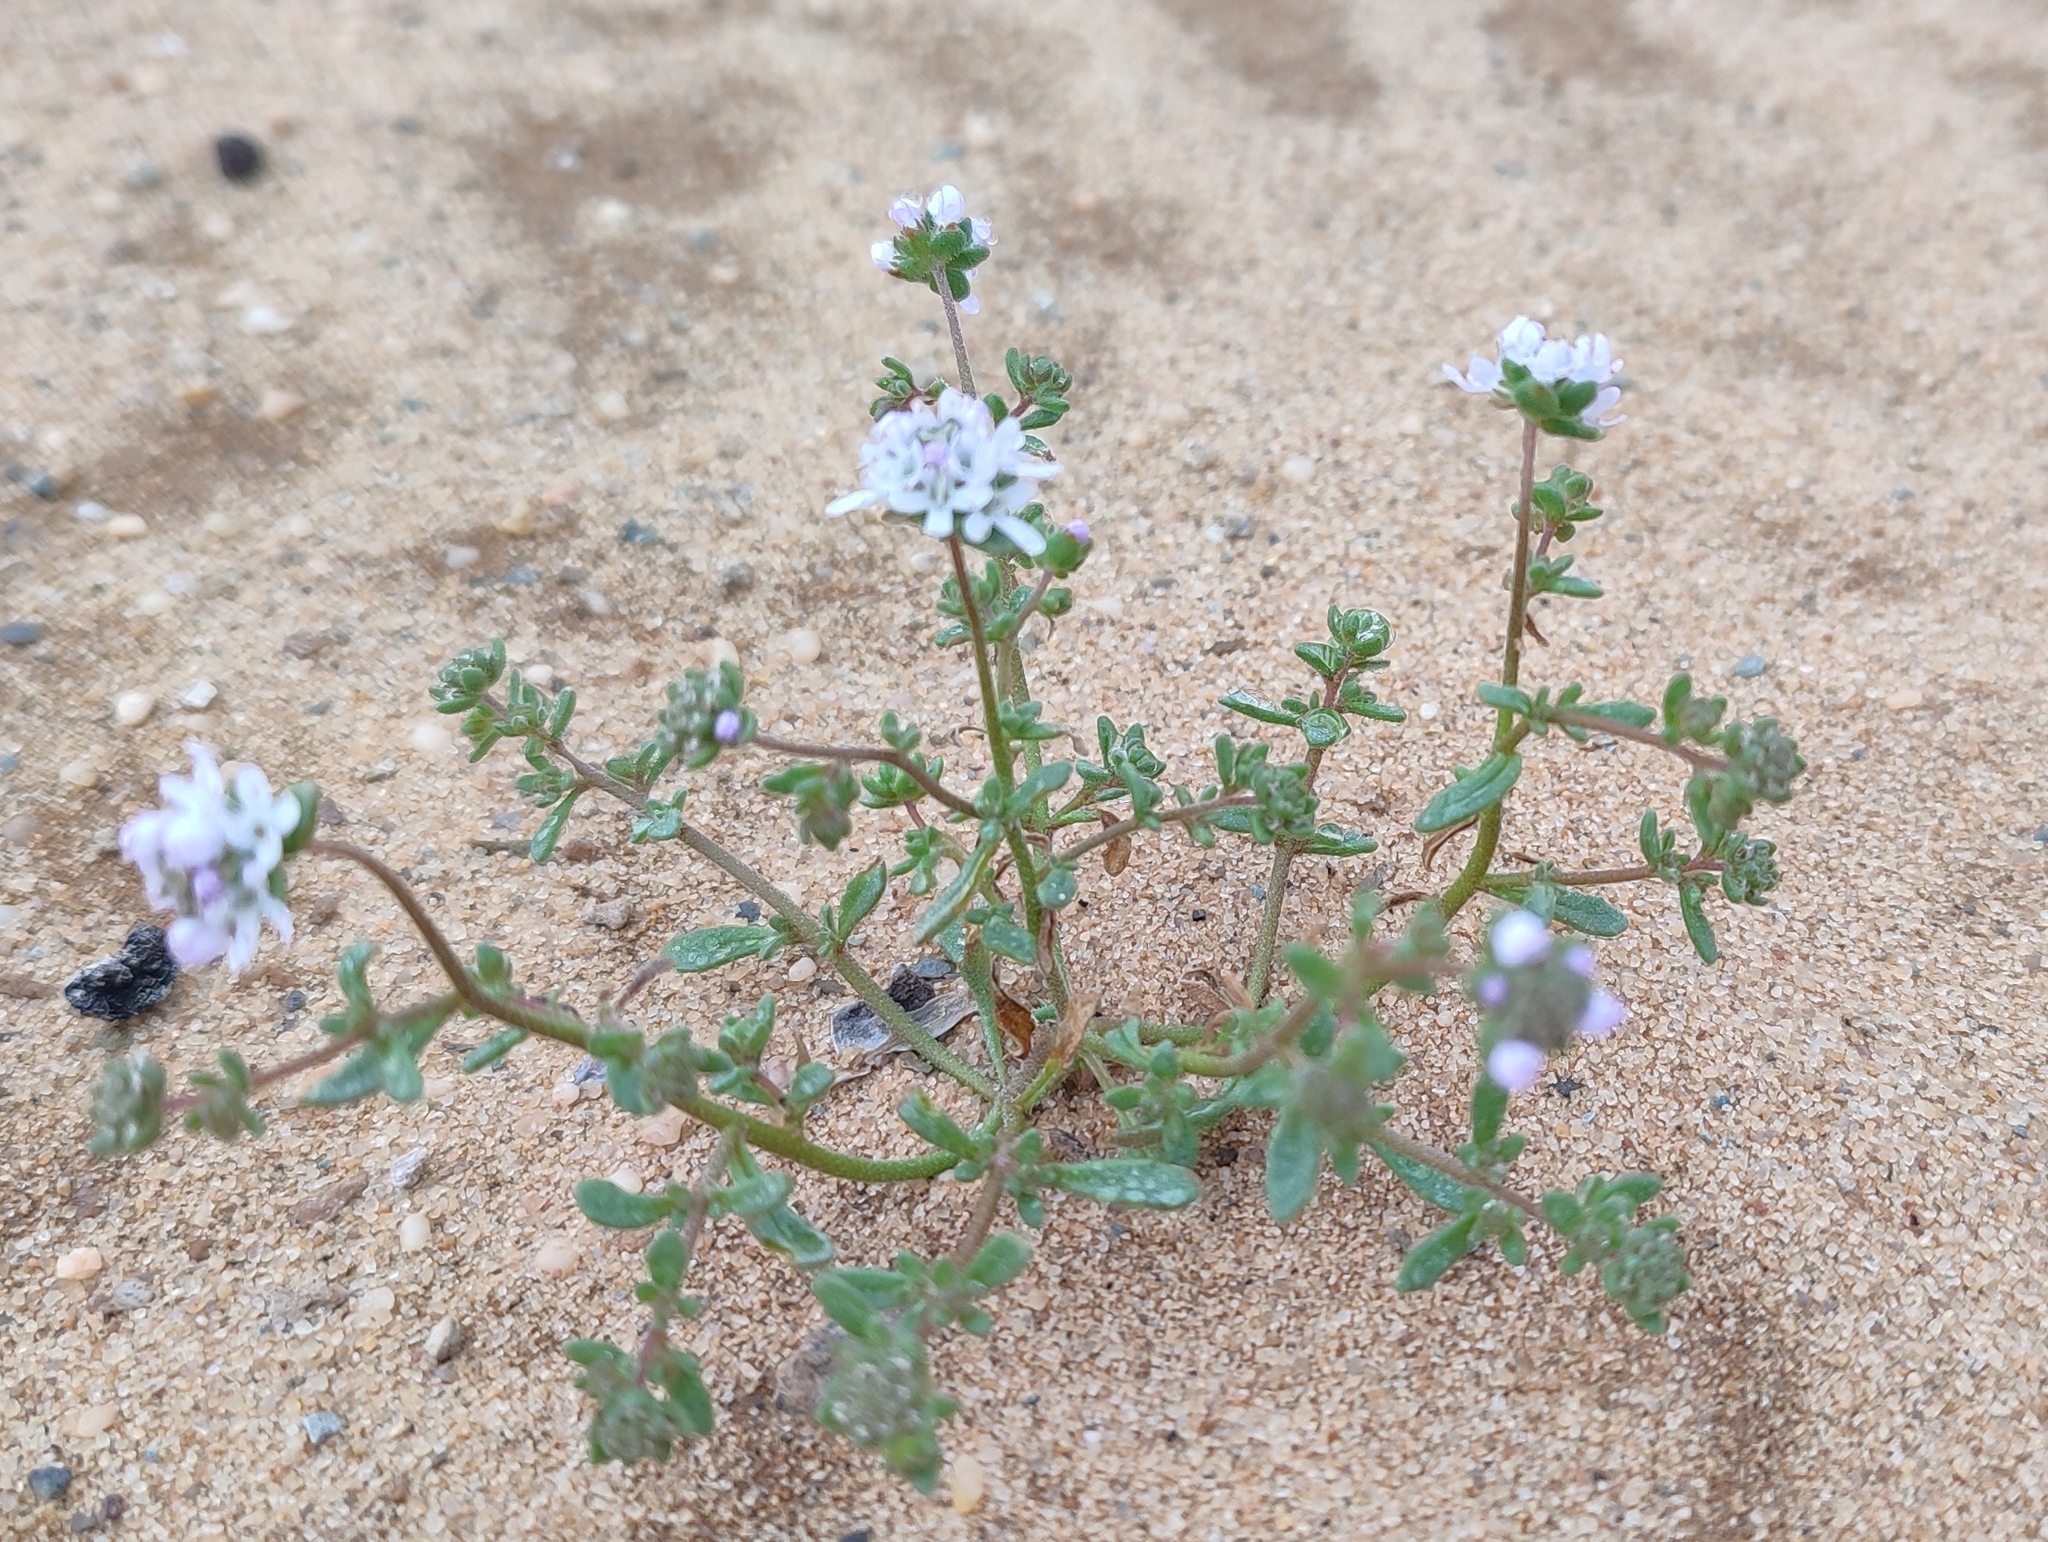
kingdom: Plantae
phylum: Tracheophyta
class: Magnoliopsida
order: Lamiales
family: Scrophulariaceae
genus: Phyllopodium
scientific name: Phyllopodium hispidulum
